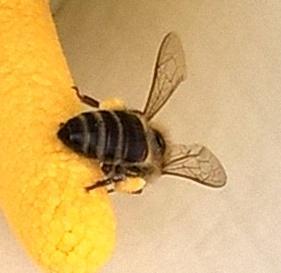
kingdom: Animalia
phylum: Arthropoda
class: Insecta
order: Hymenoptera
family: Apidae
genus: Apis
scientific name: Apis mellifera
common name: Honey bee
